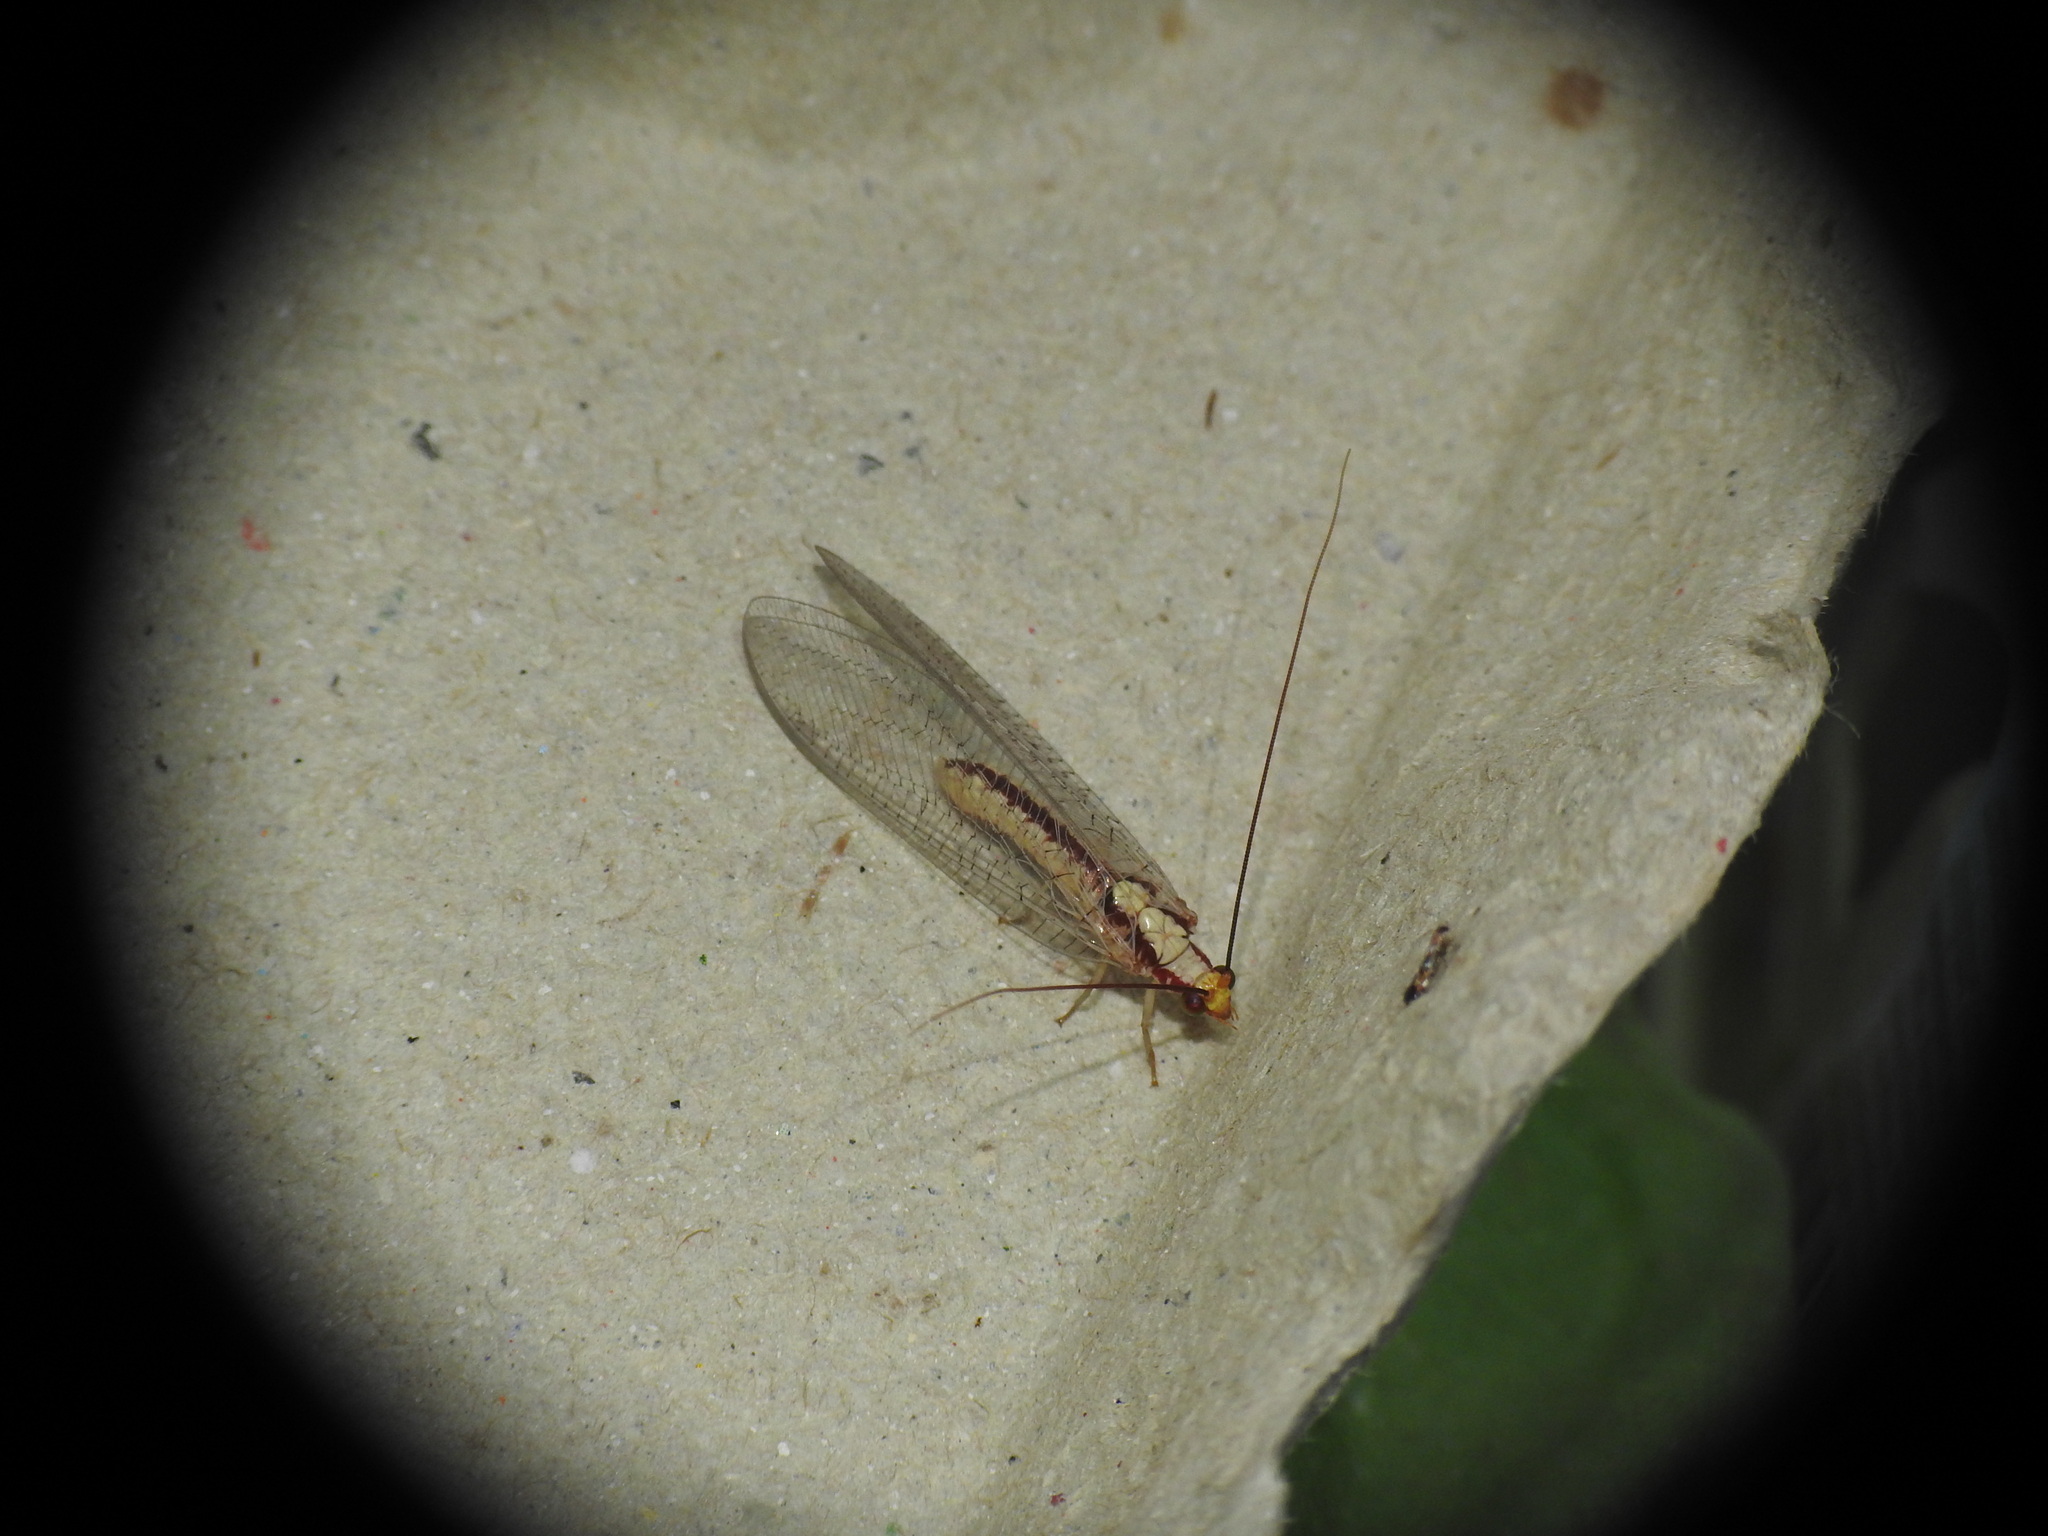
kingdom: Animalia
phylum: Arthropoda
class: Insecta
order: Neuroptera
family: Chrysopidae
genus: Italochrysa
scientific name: Italochrysa italica
